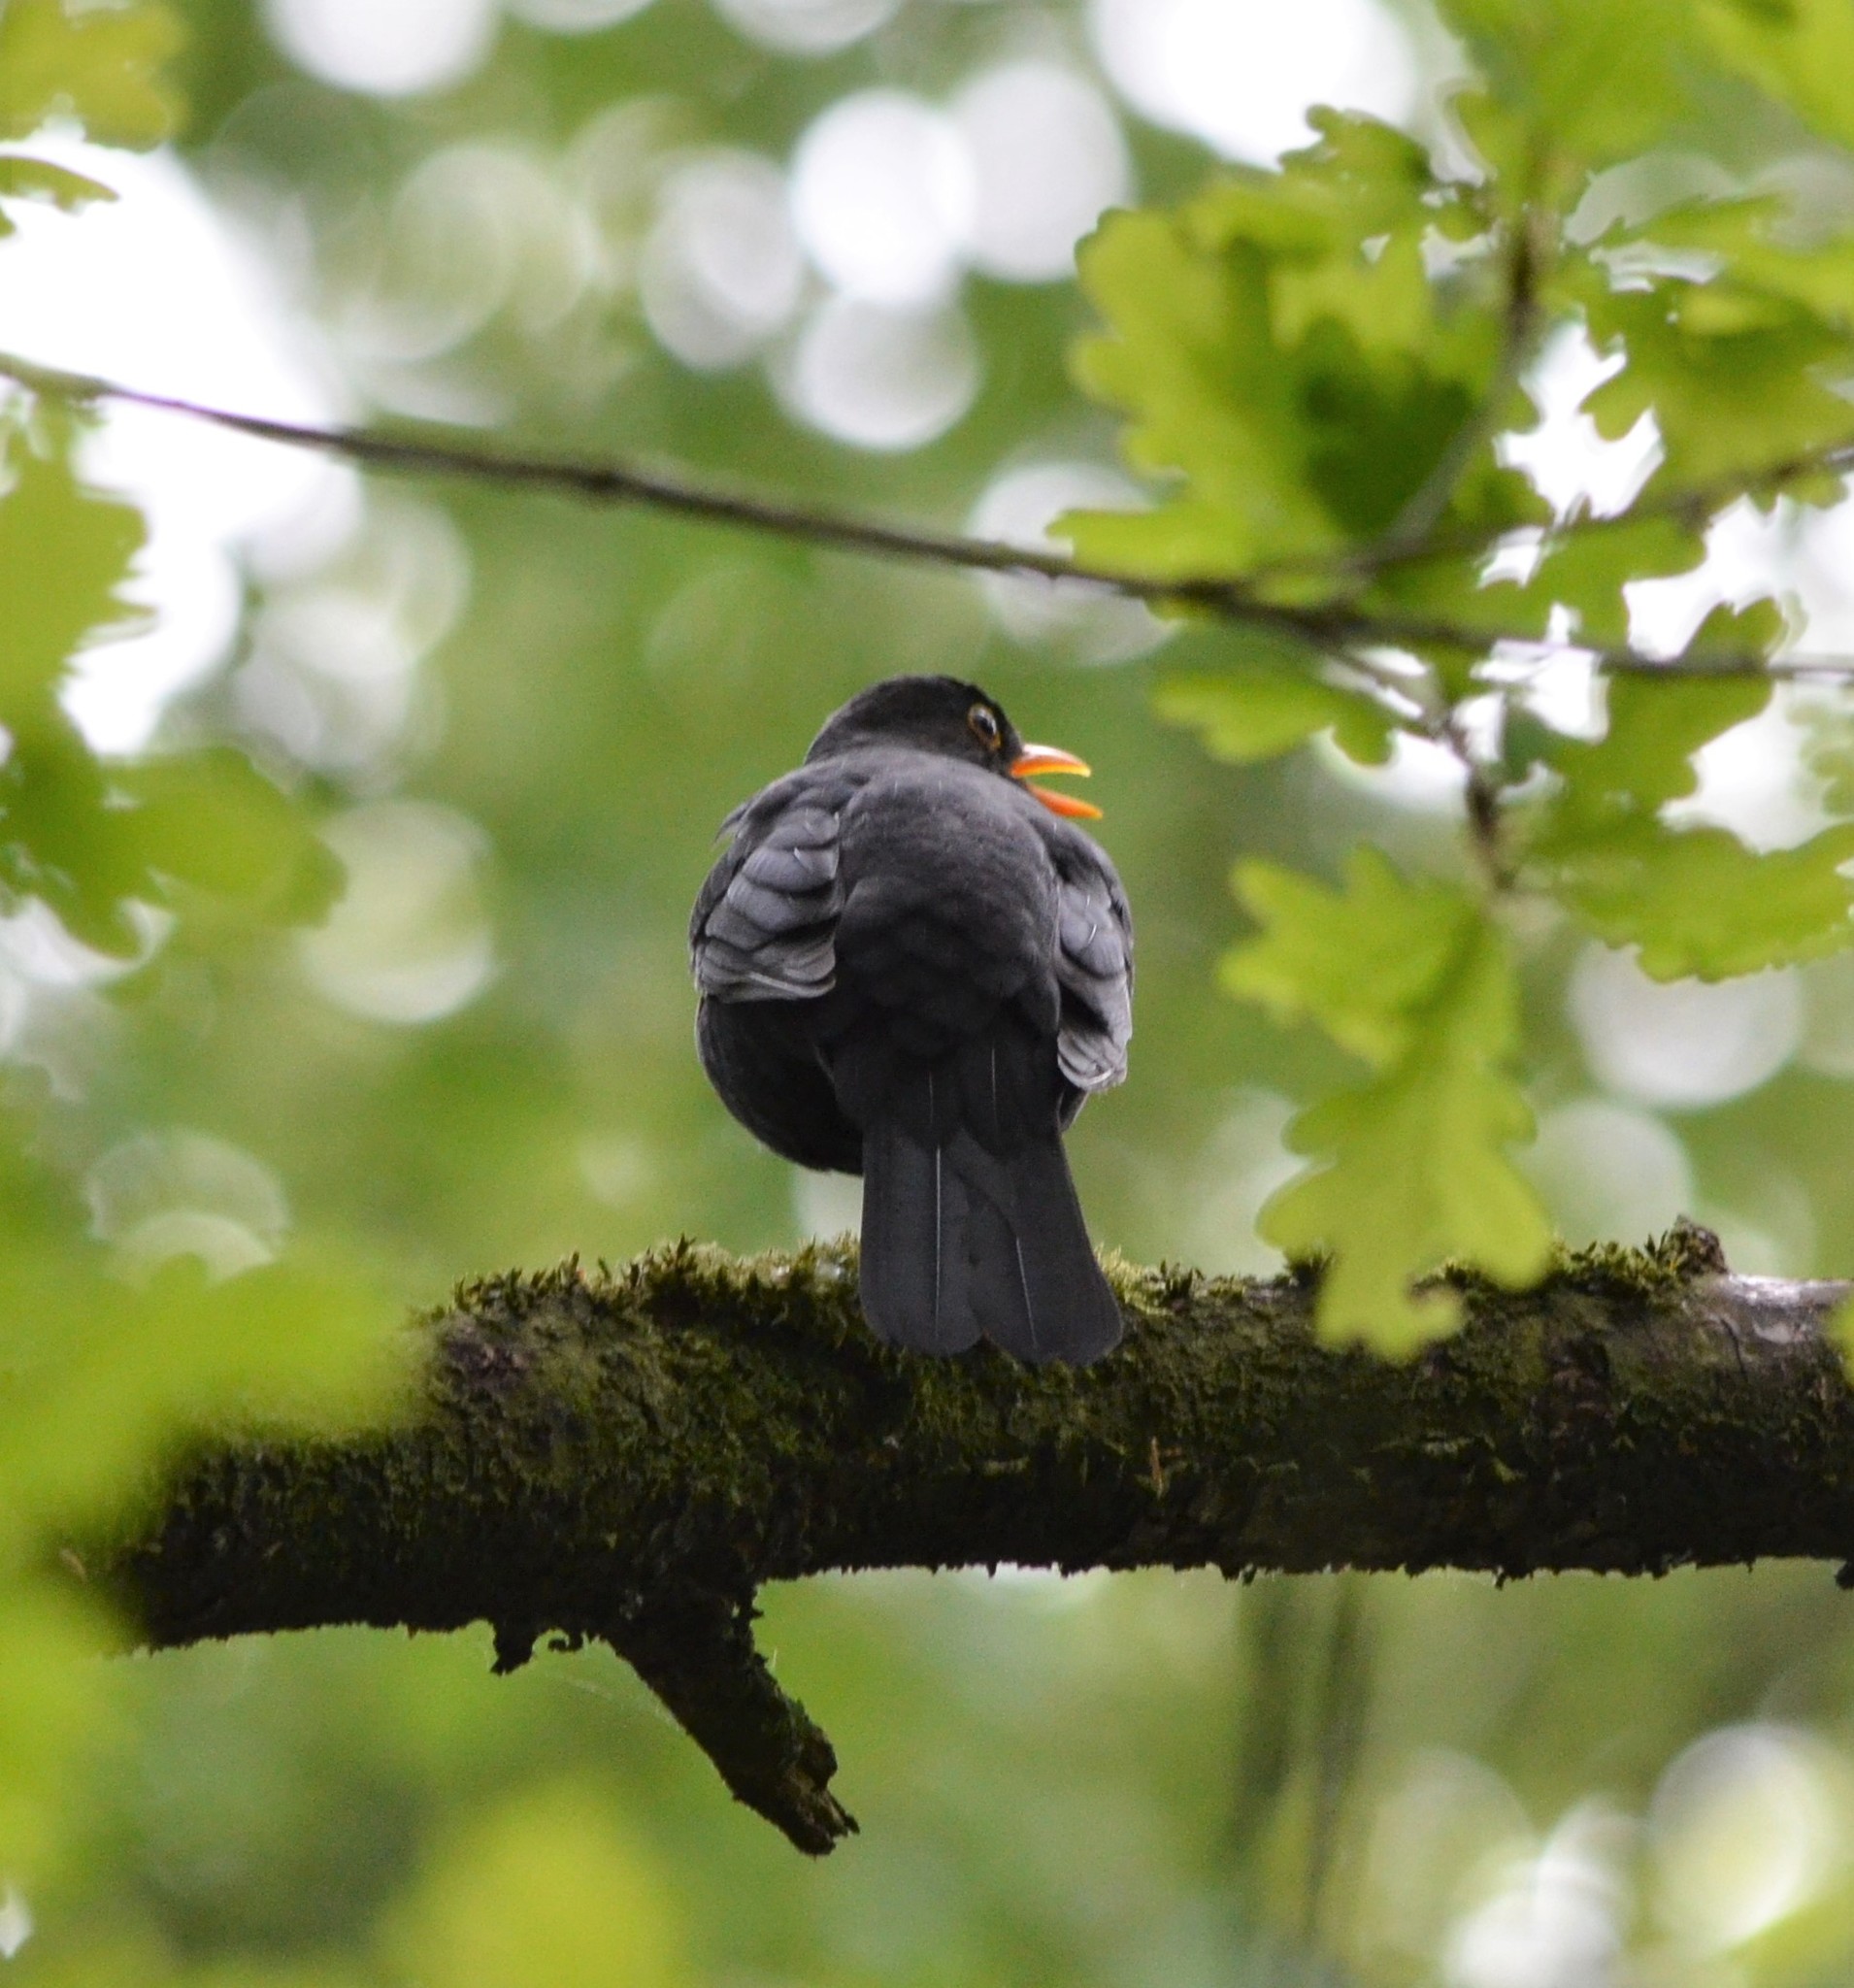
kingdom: Animalia
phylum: Chordata
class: Aves
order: Passeriformes
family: Turdidae
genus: Turdus
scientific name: Turdus merula
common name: Common blackbird
